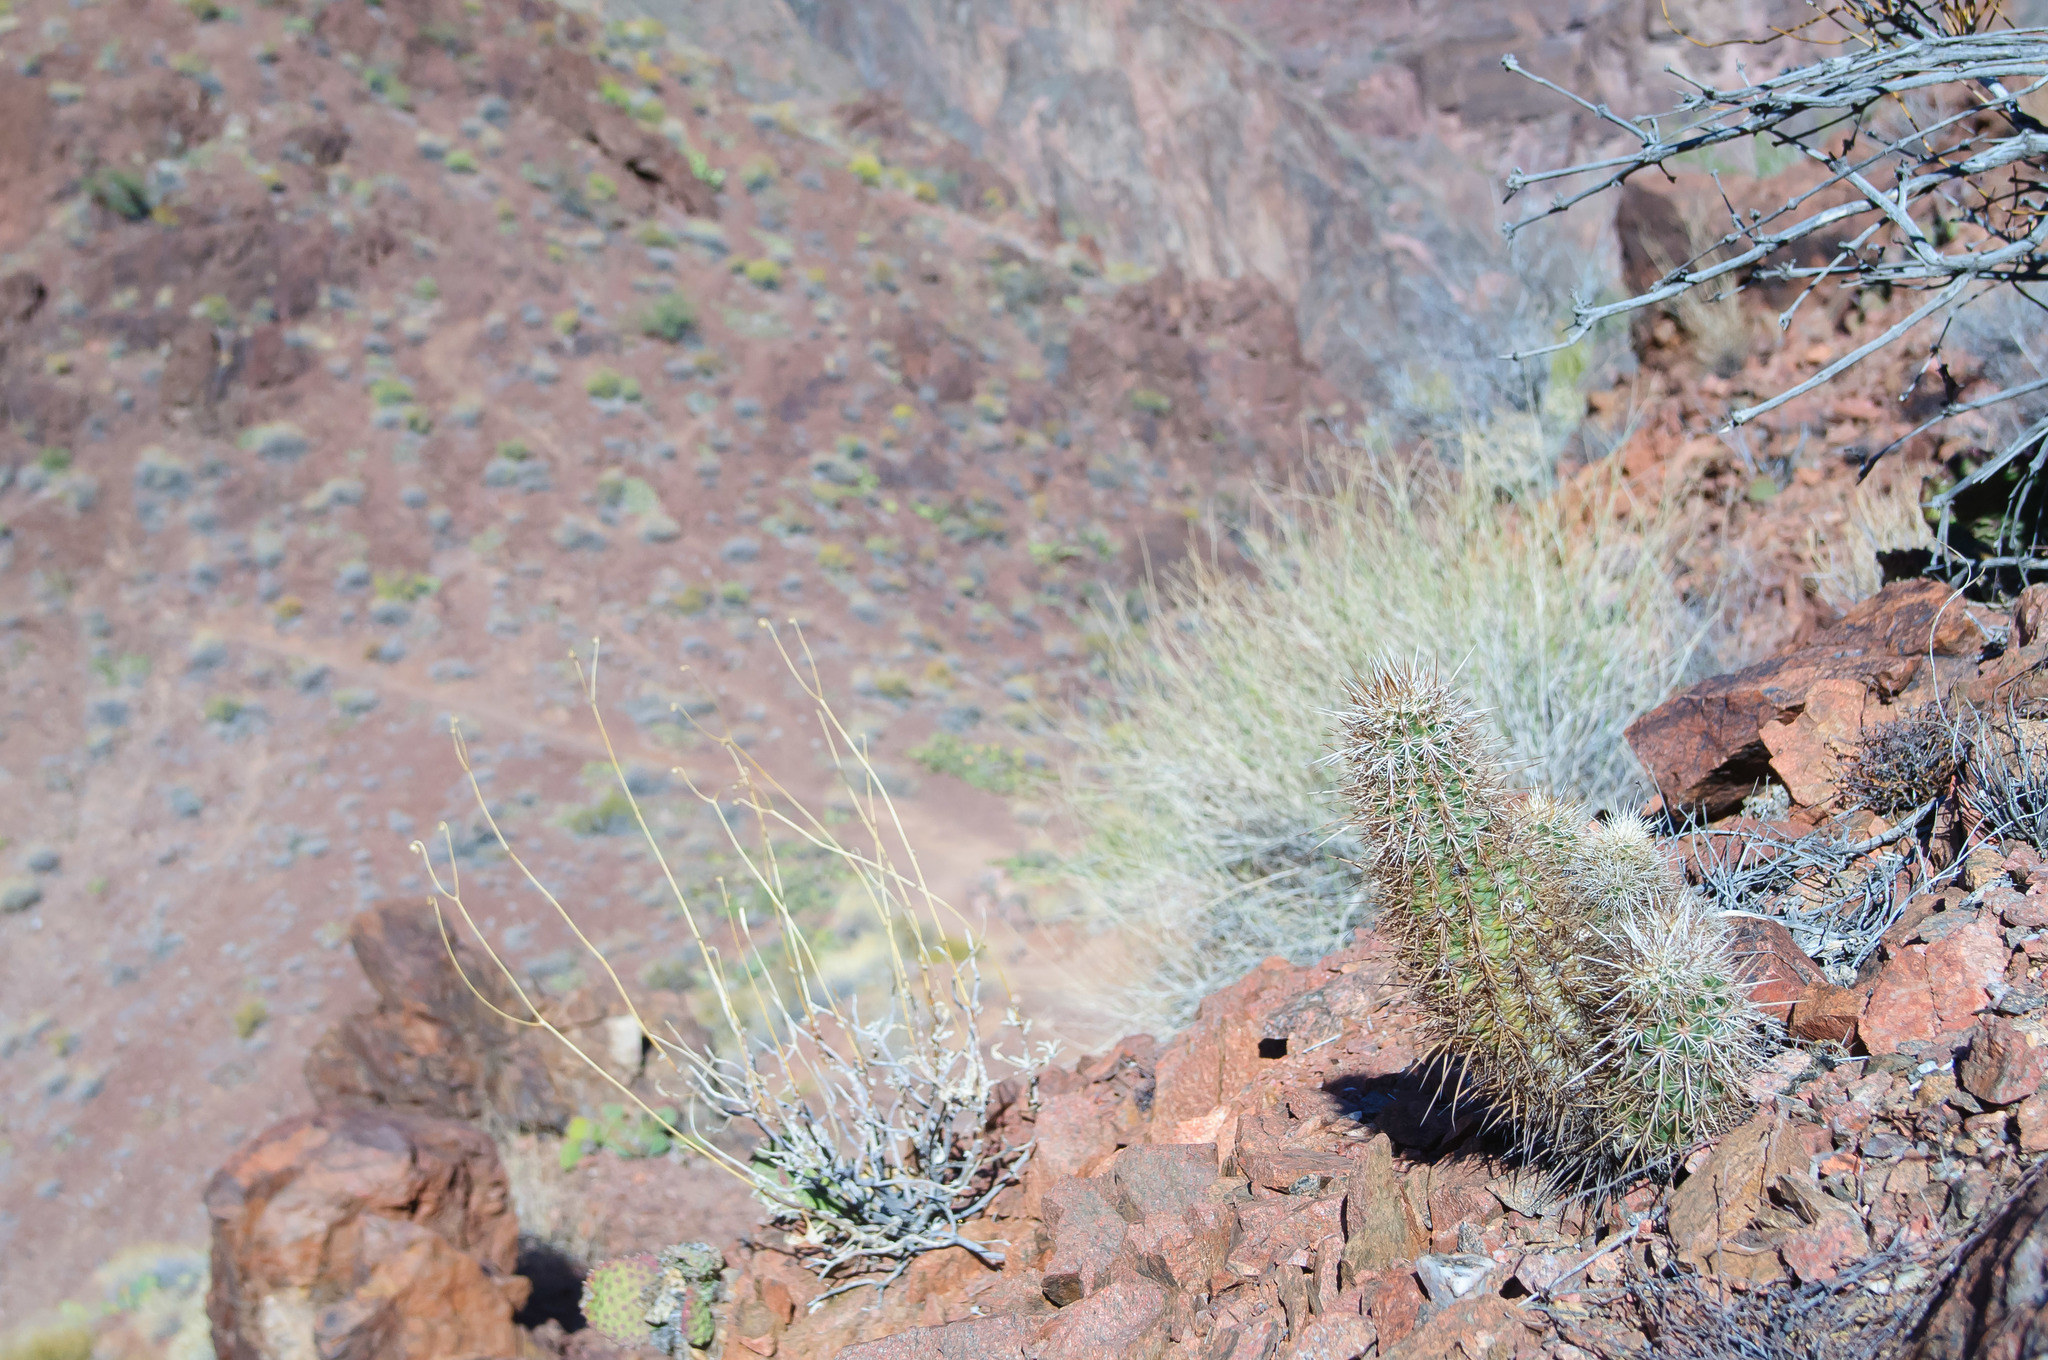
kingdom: Plantae
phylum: Tracheophyta
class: Magnoliopsida
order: Caryophyllales
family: Cactaceae
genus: Echinocereus
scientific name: Echinocereus engelmannii
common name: Engelmann's hedgehog cactus
